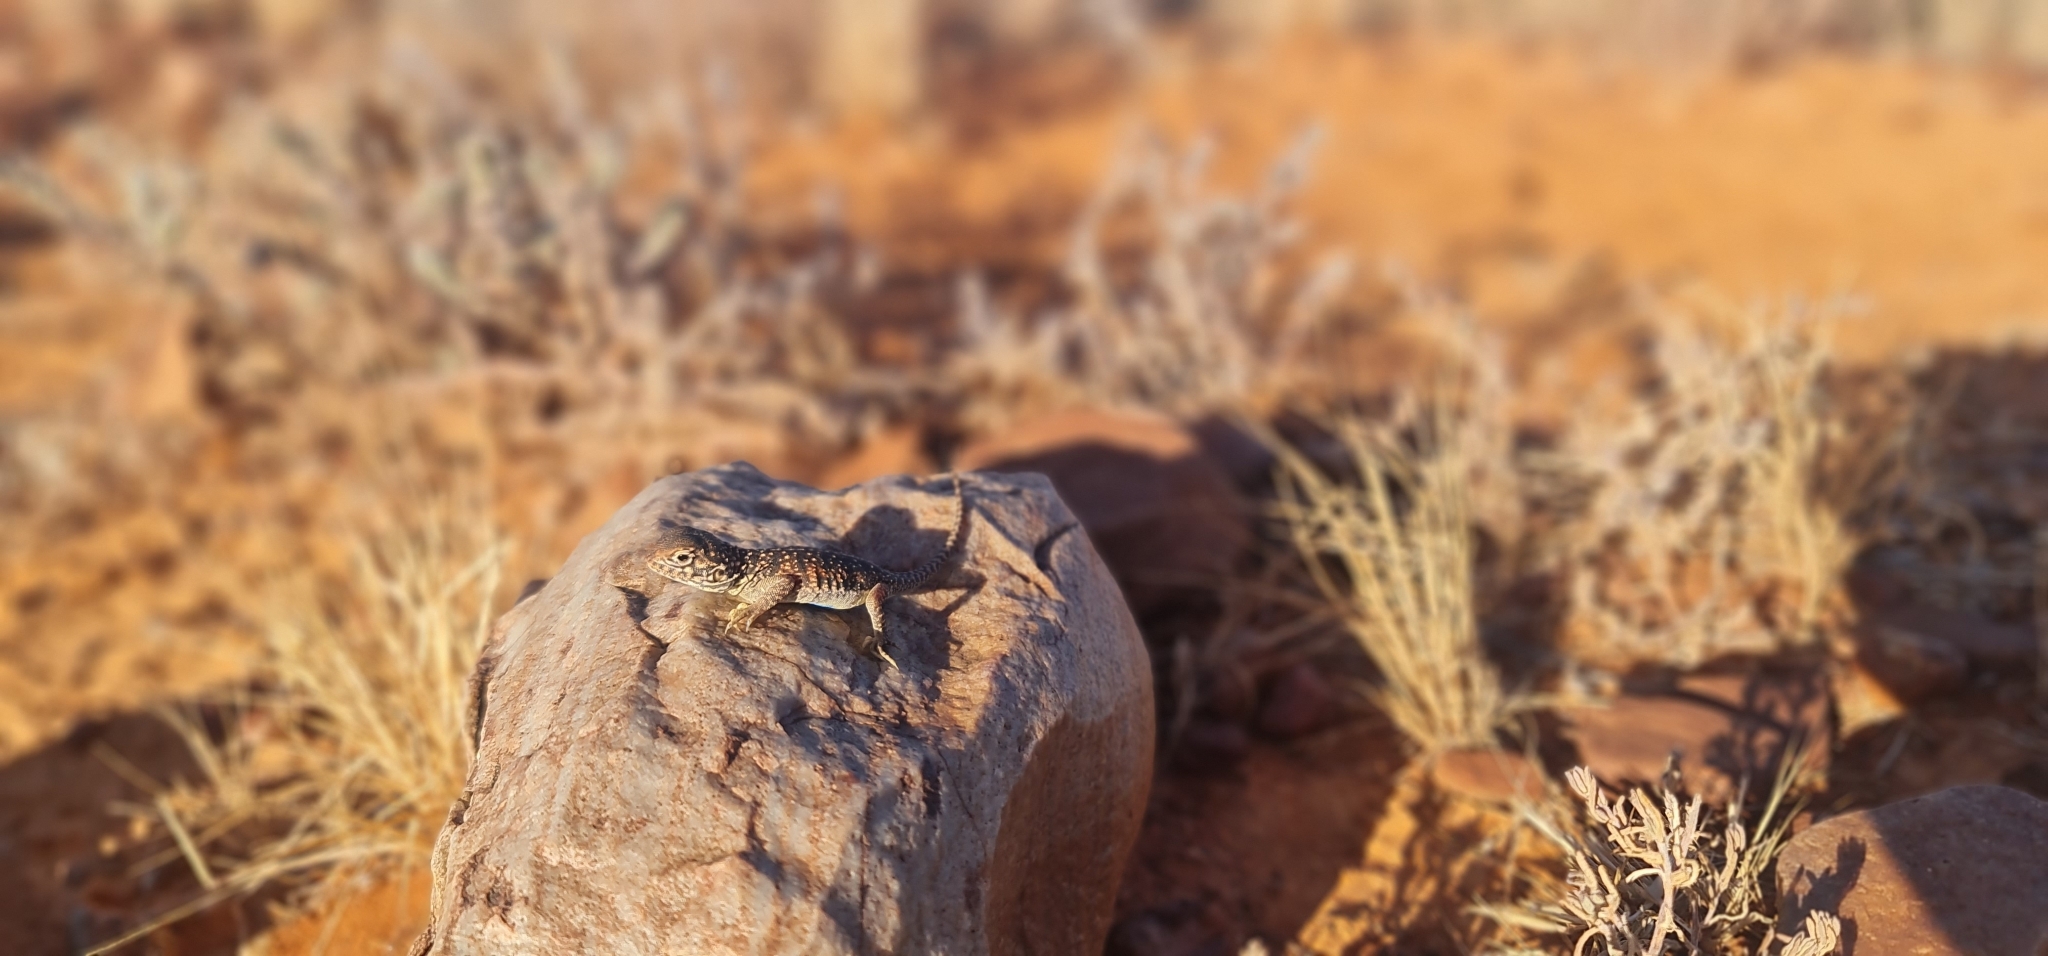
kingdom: Animalia
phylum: Chordata
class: Squamata
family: Agamidae
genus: Ctenophorus
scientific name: Ctenophorus nuchalis
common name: Central netted dragon
